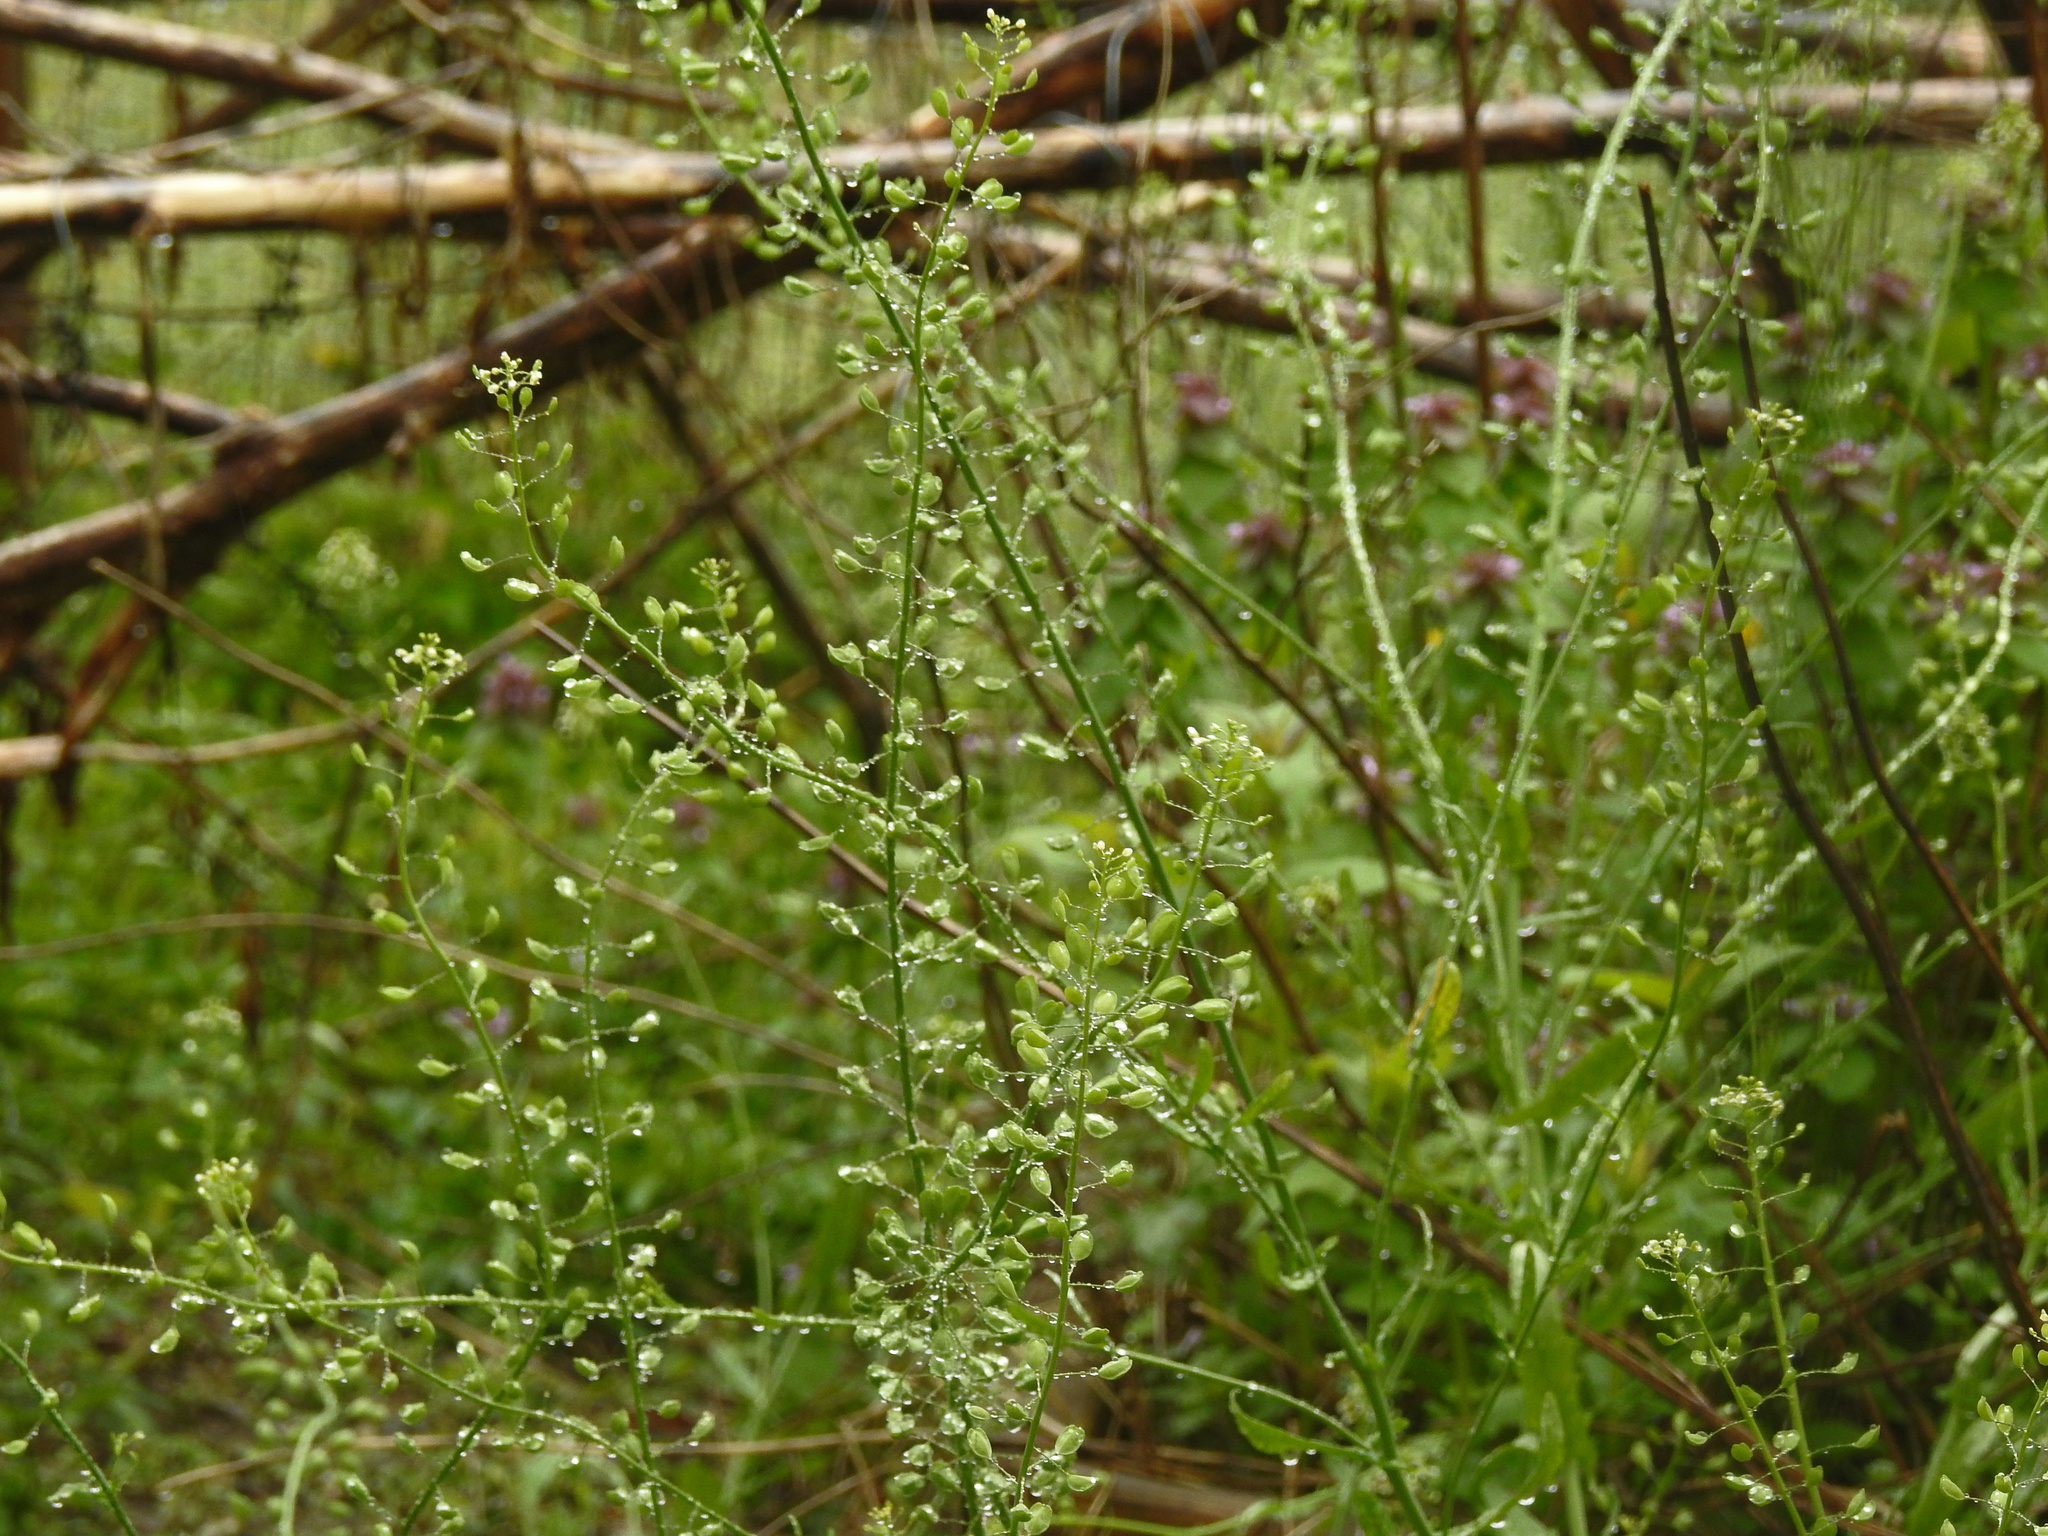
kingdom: Plantae
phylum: Tracheophyta
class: Magnoliopsida
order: Brassicales
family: Brassicaceae
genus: Mummenhoffia
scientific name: Mummenhoffia alliacea
